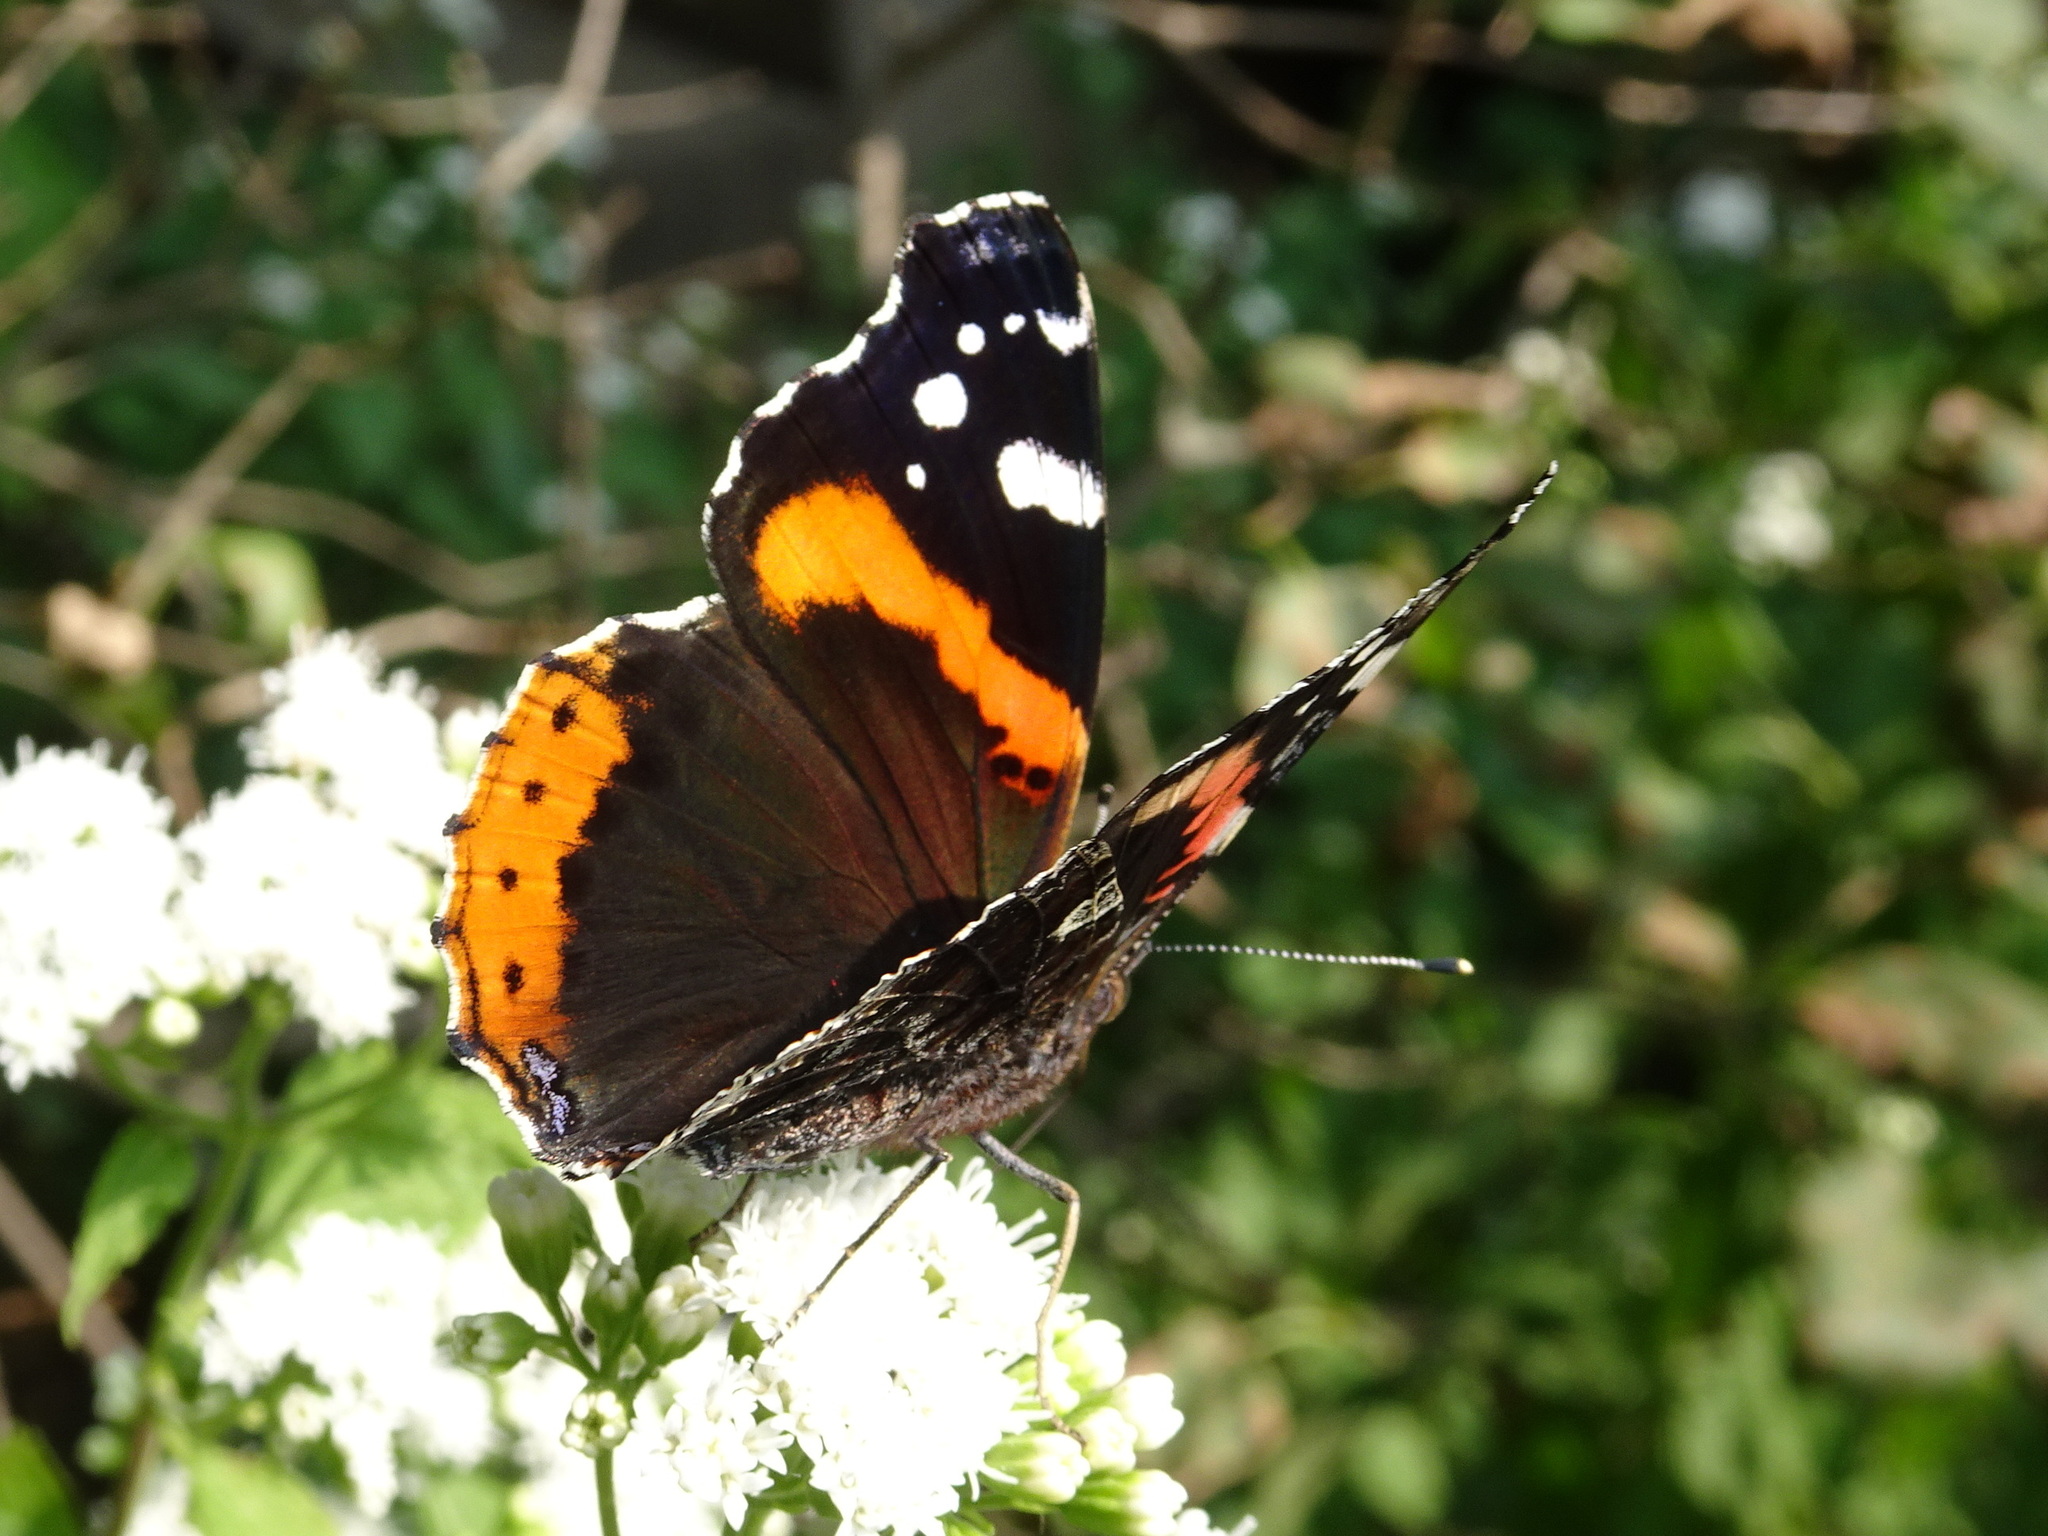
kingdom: Animalia
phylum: Arthropoda
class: Insecta
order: Lepidoptera
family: Nymphalidae
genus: Vanessa
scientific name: Vanessa atalanta
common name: Red admiral
